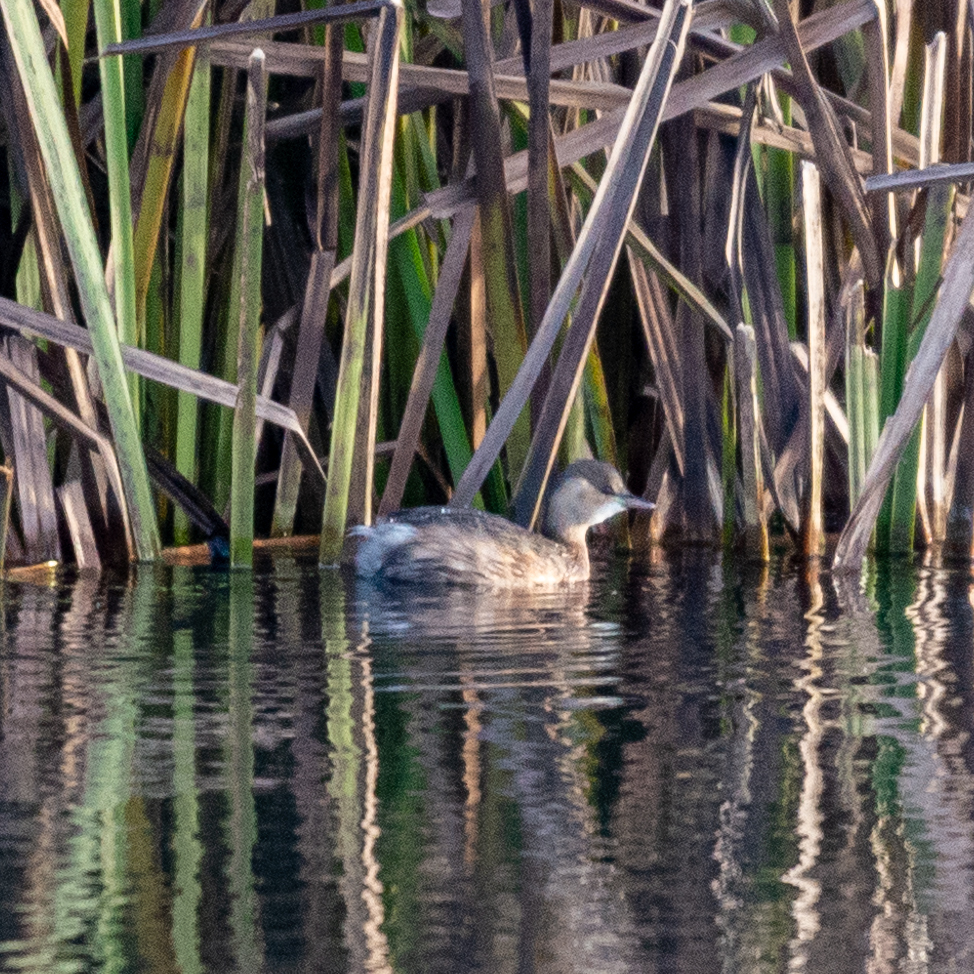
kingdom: Animalia
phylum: Chordata
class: Aves
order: Podicipediformes
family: Podicipedidae
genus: Tachybaptus
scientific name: Tachybaptus ruficollis
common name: Little grebe
